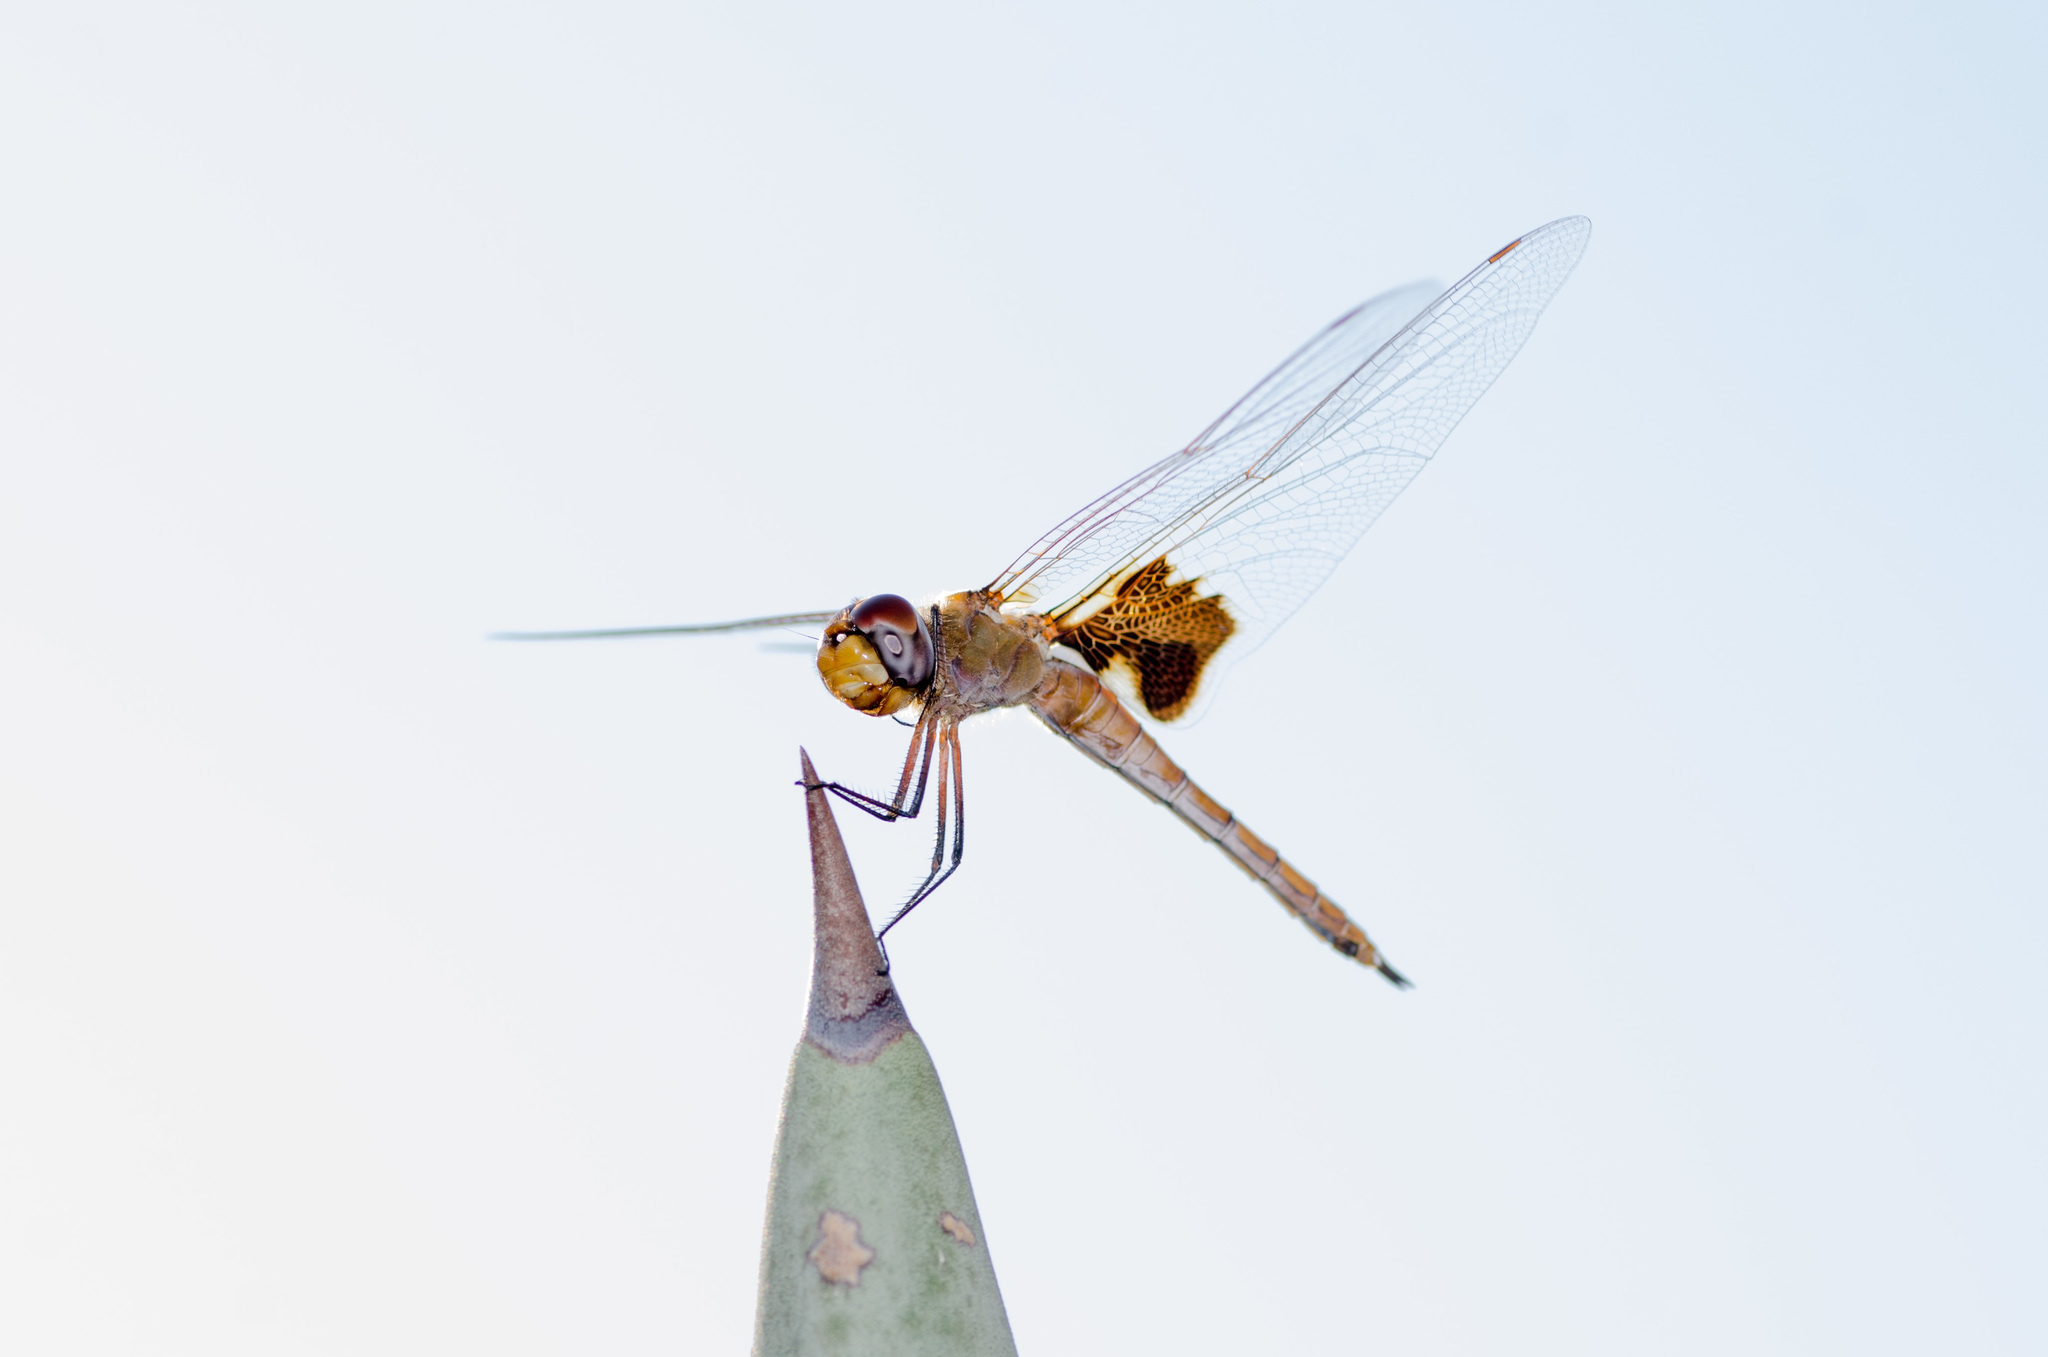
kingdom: Animalia
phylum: Arthropoda
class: Insecta
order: Odonata
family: Libellulidae
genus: Tramea
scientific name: Tramea onusta
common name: Red saddlebags
